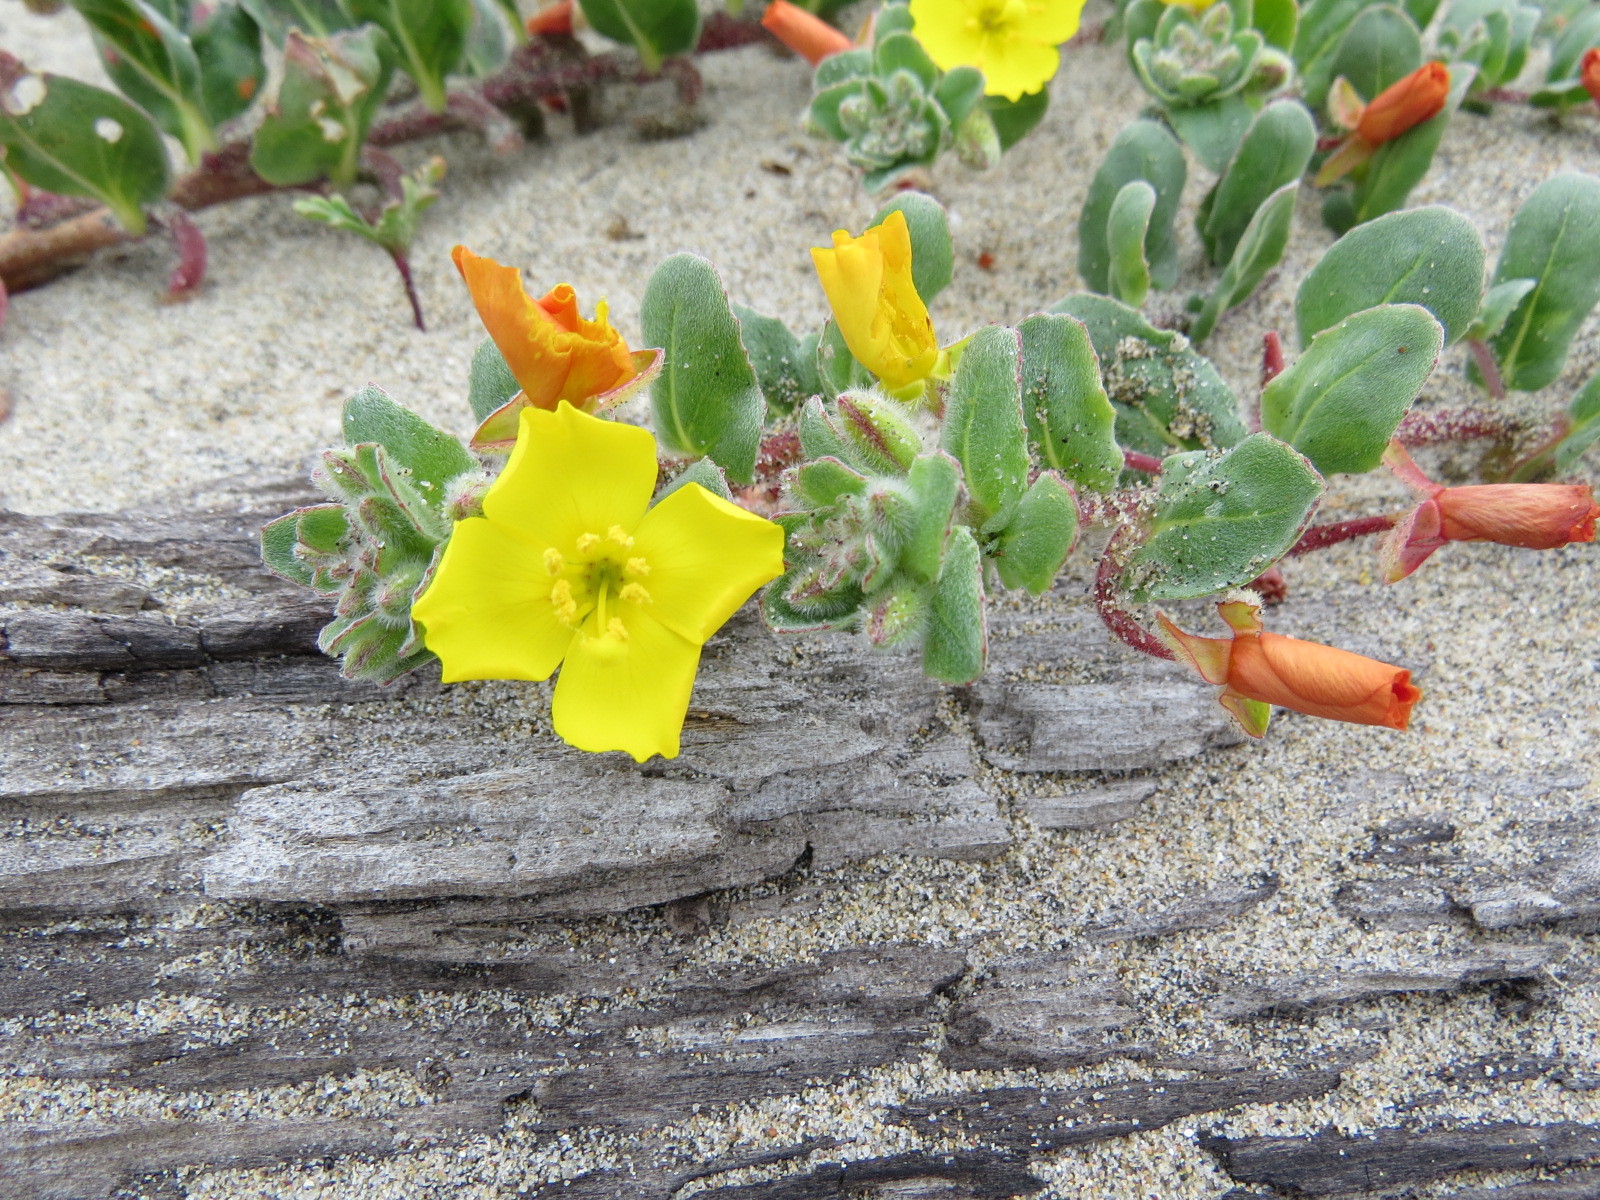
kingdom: Plantae
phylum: Tracheophyta
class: Magnoliopsida
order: Myrtales
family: Onagraceae
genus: Camissoniopsis
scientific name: Camissoniopsis cheiranthifolia
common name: Beach suncup
